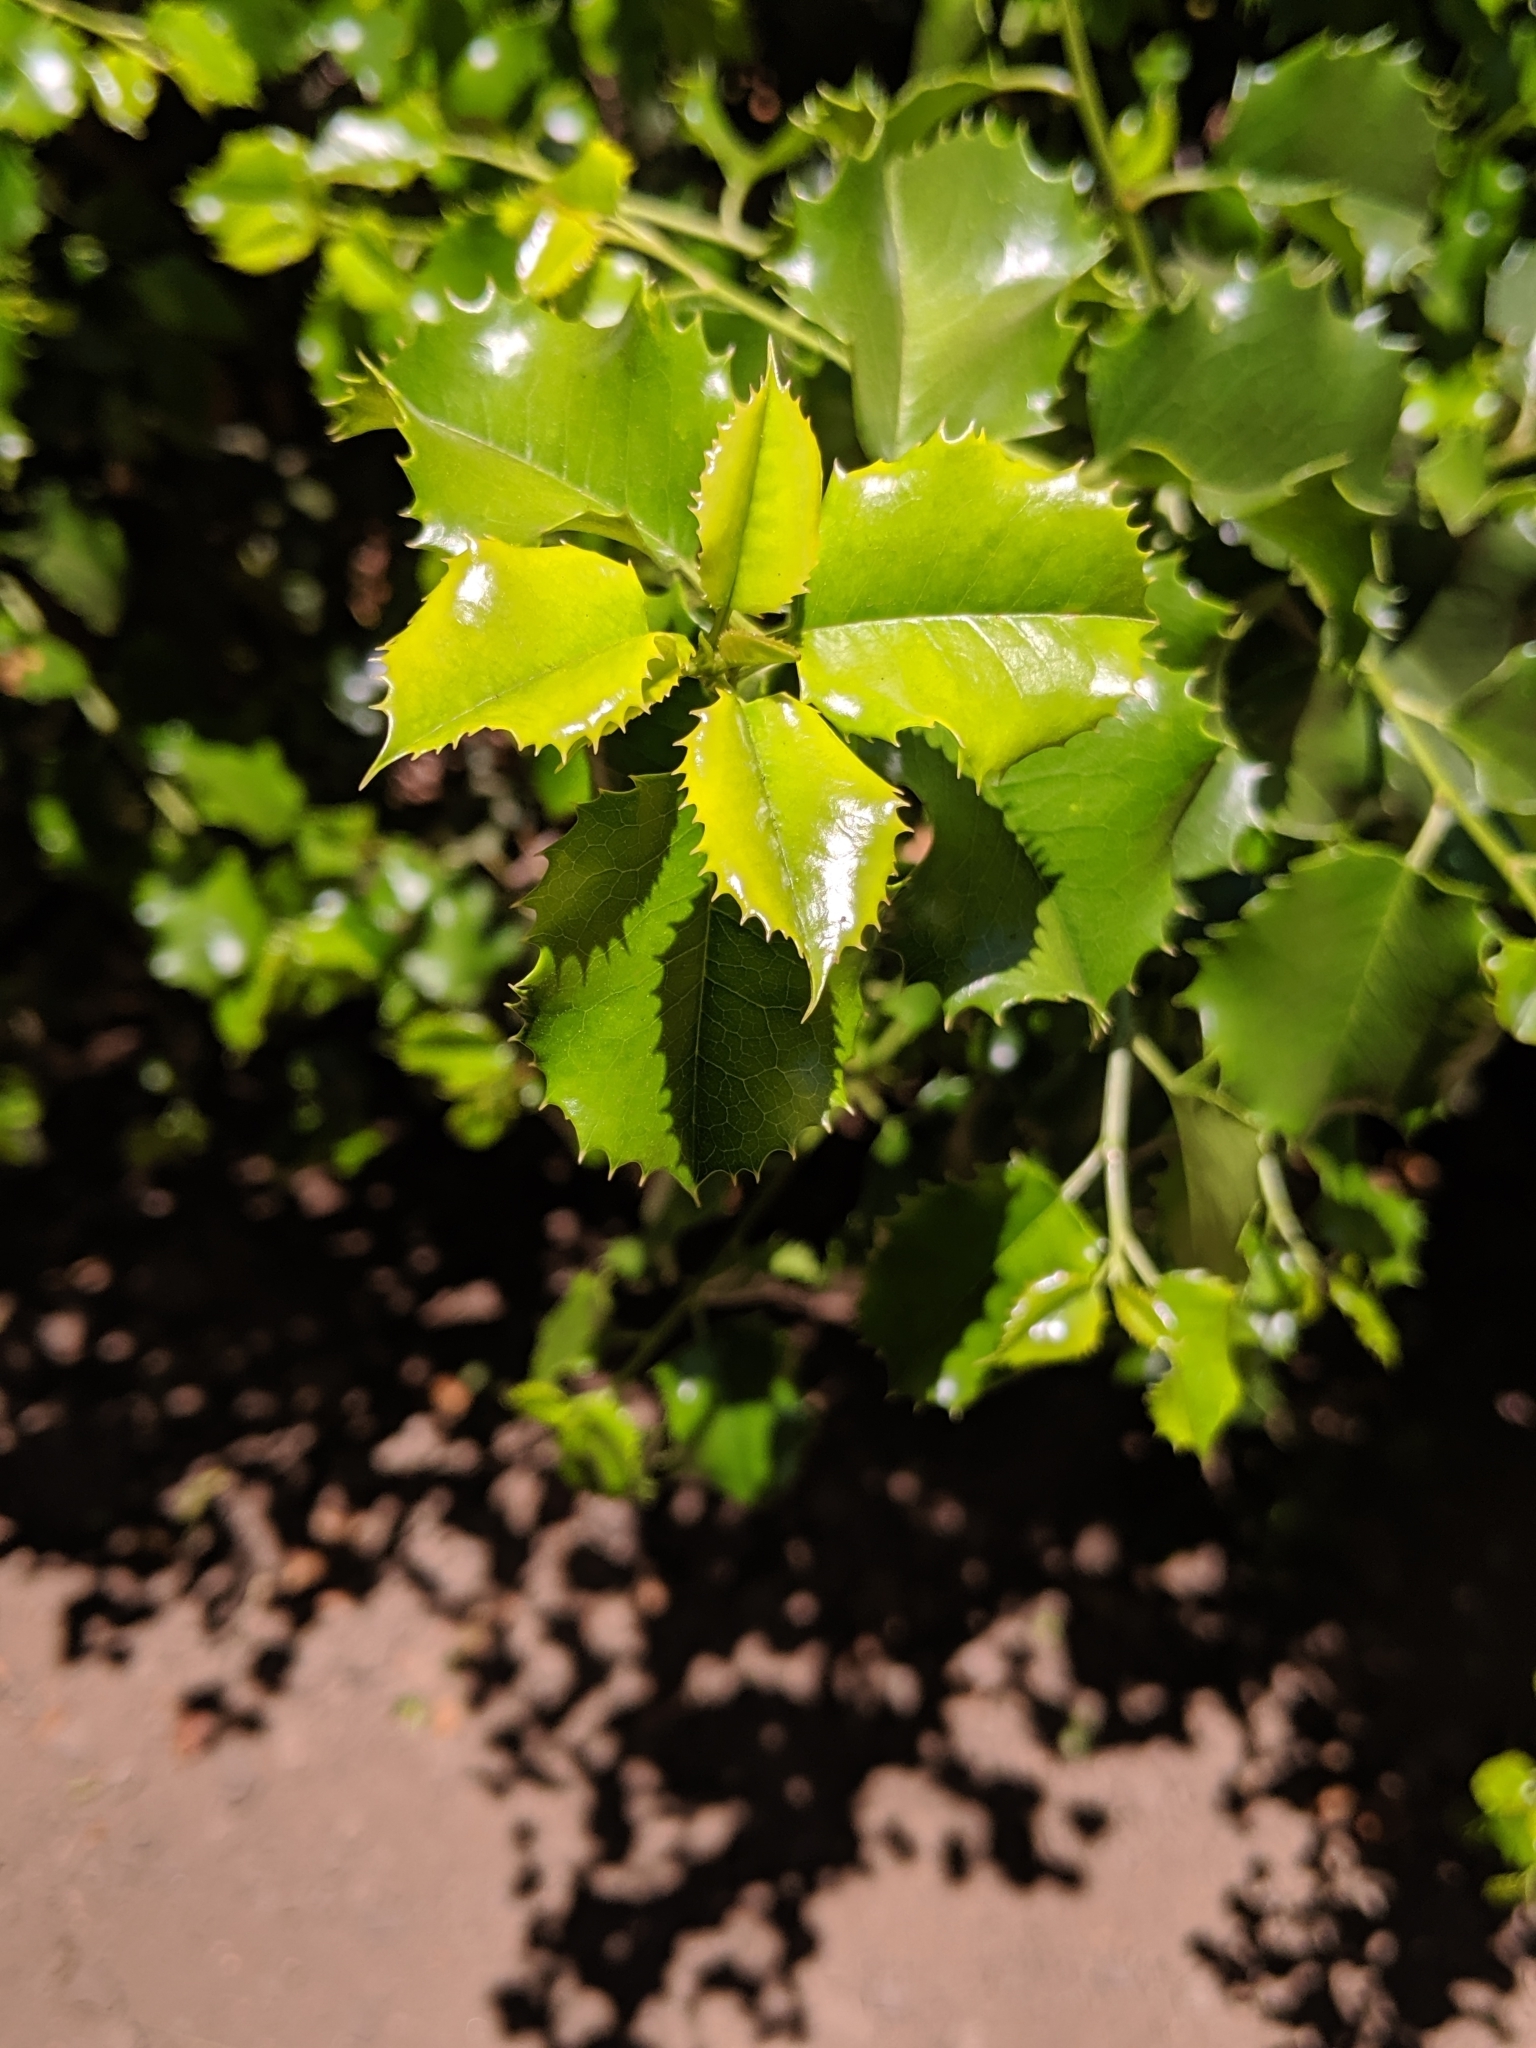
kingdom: Plantae
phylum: Tracheophyta
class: Magnoliopsida
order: Rosales
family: Rosaceae
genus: Prunus
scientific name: Prunus ilicifolia
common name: Hollyleaf cherry
